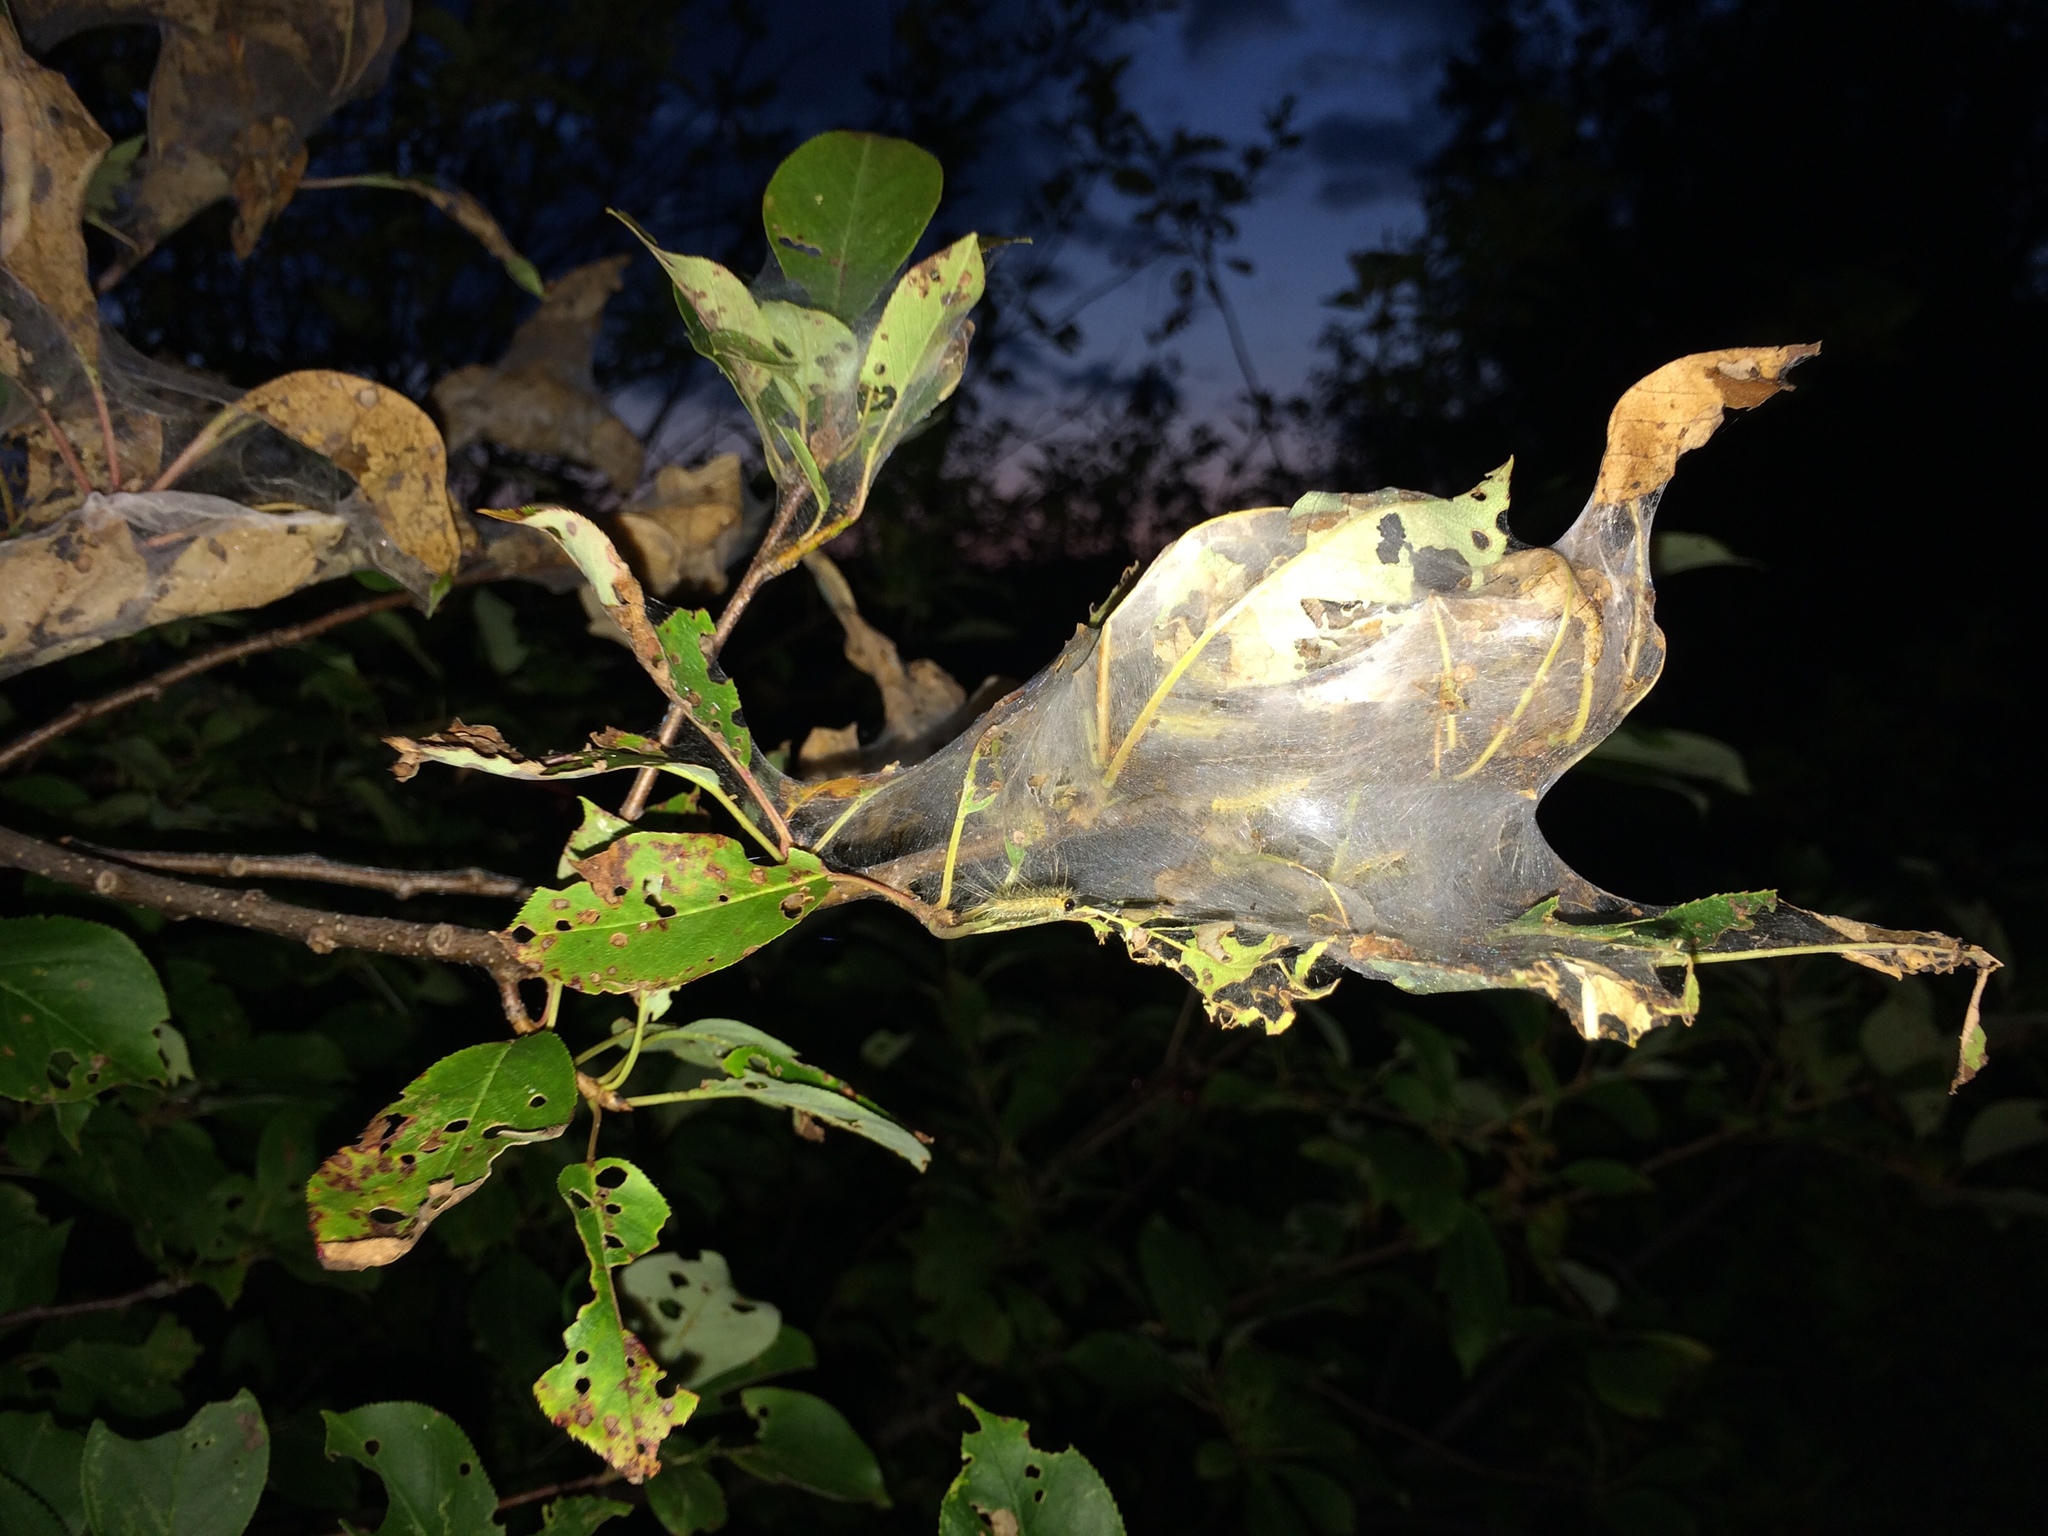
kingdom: Animalia
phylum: Arthropoda
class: Insecta
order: Lepidoptera
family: Erebidae
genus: Hyphantria
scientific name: Hyphantria cunea
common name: American white moth
